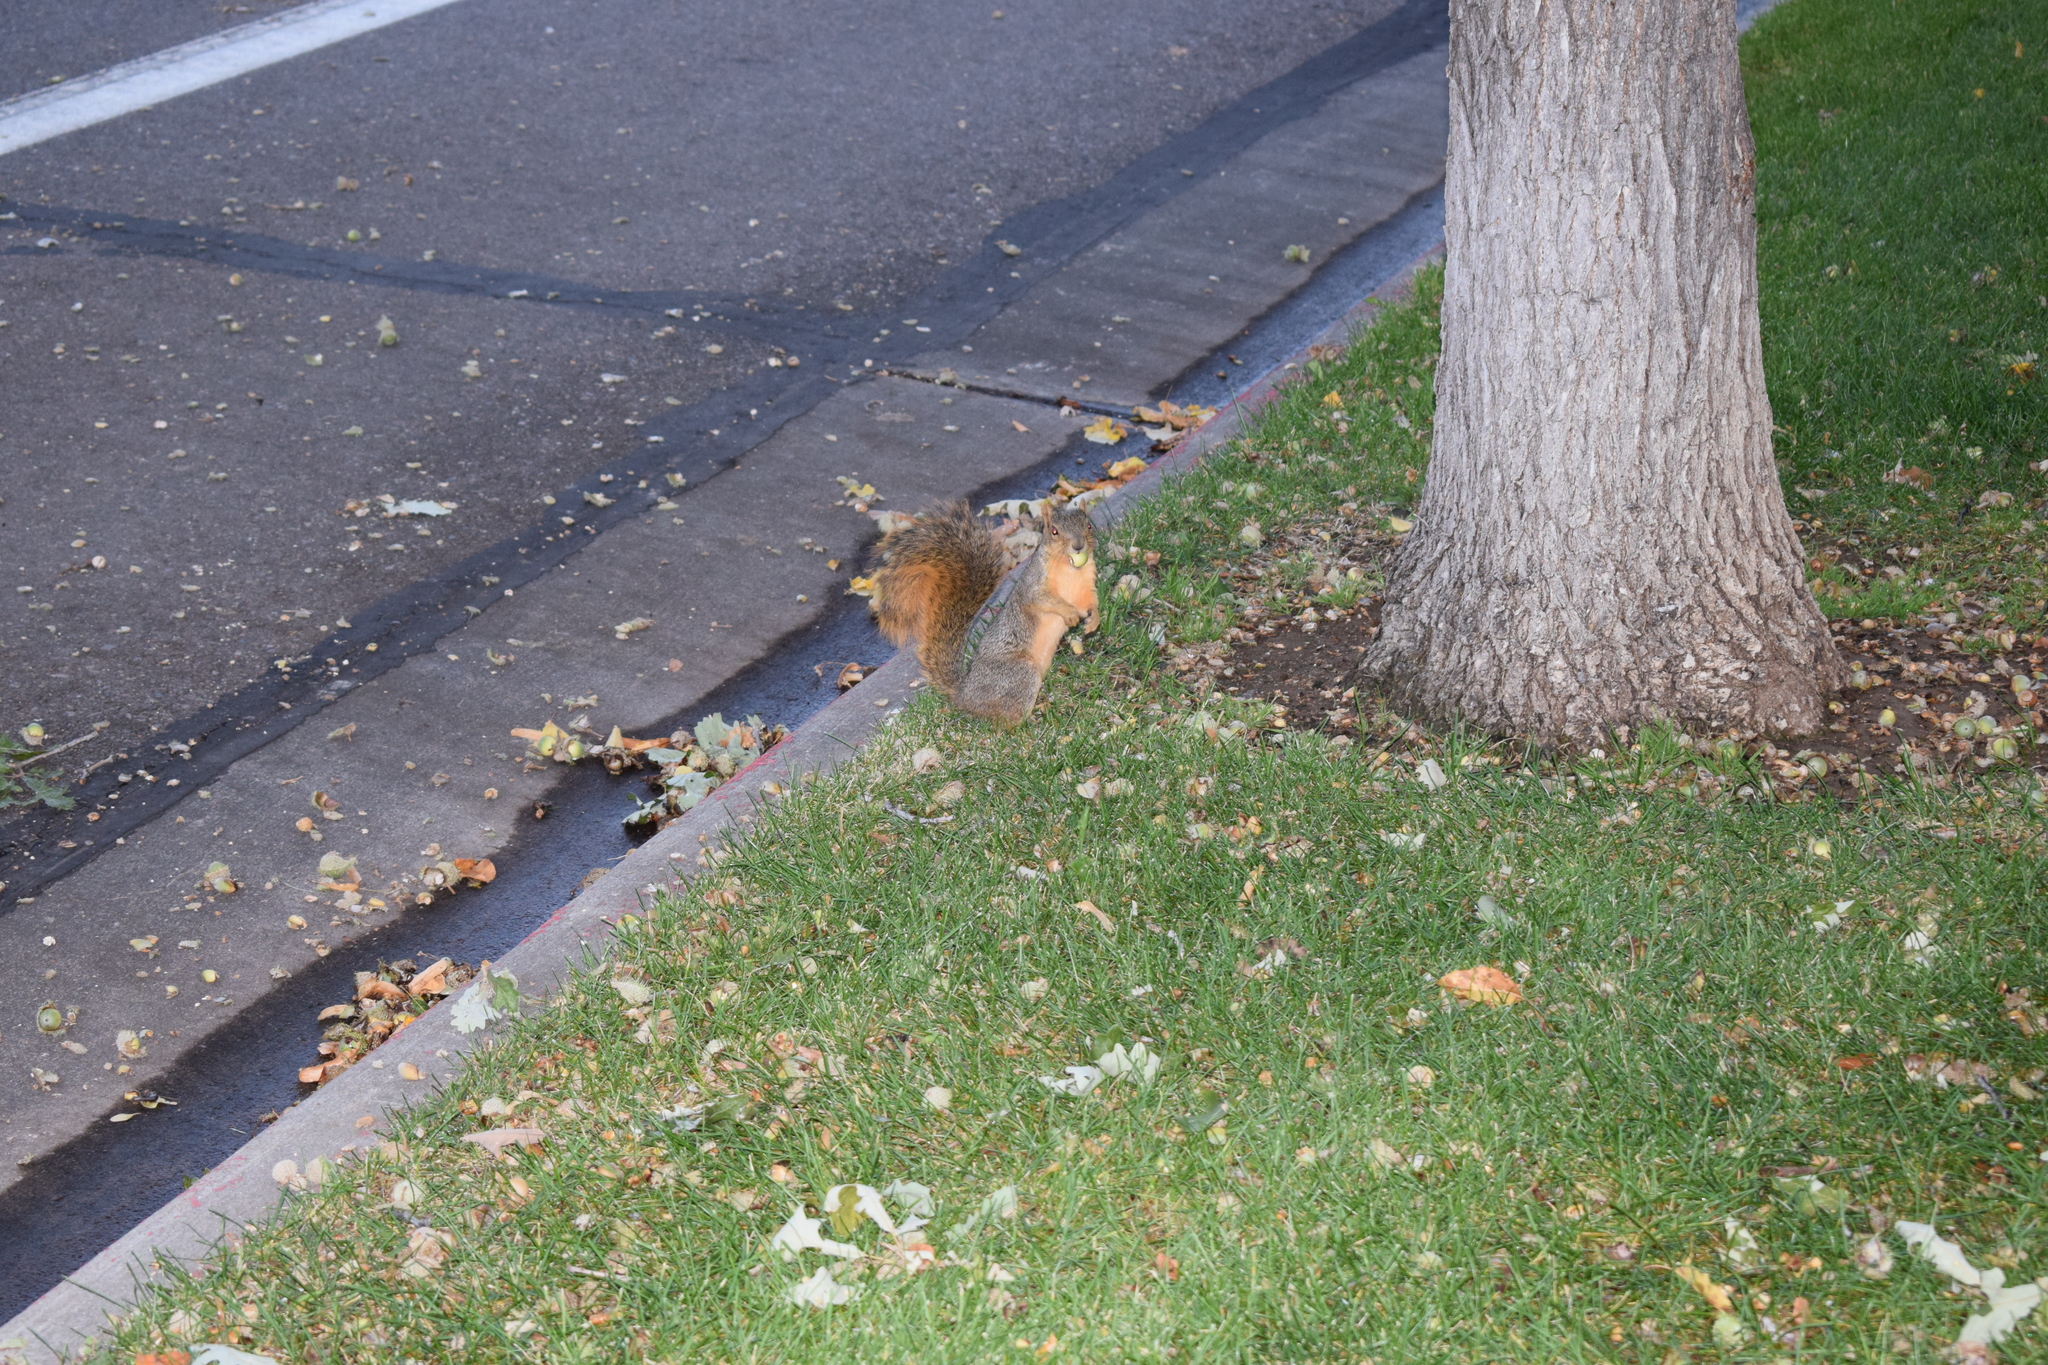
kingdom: Animalia
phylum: Chordata
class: Mammalia
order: Rodentia
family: Sciuridae
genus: Sciurus
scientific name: Sciurus niger
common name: Fox squirrel
